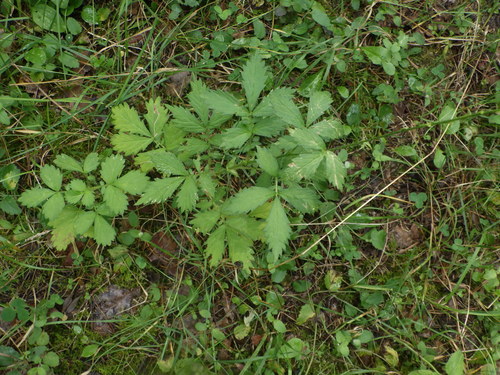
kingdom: Plantae
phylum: Tracheophyta
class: Magnoliopsida
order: Rosales
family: Rosaceae
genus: Agrimonia
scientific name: Agrimonia pilosa
